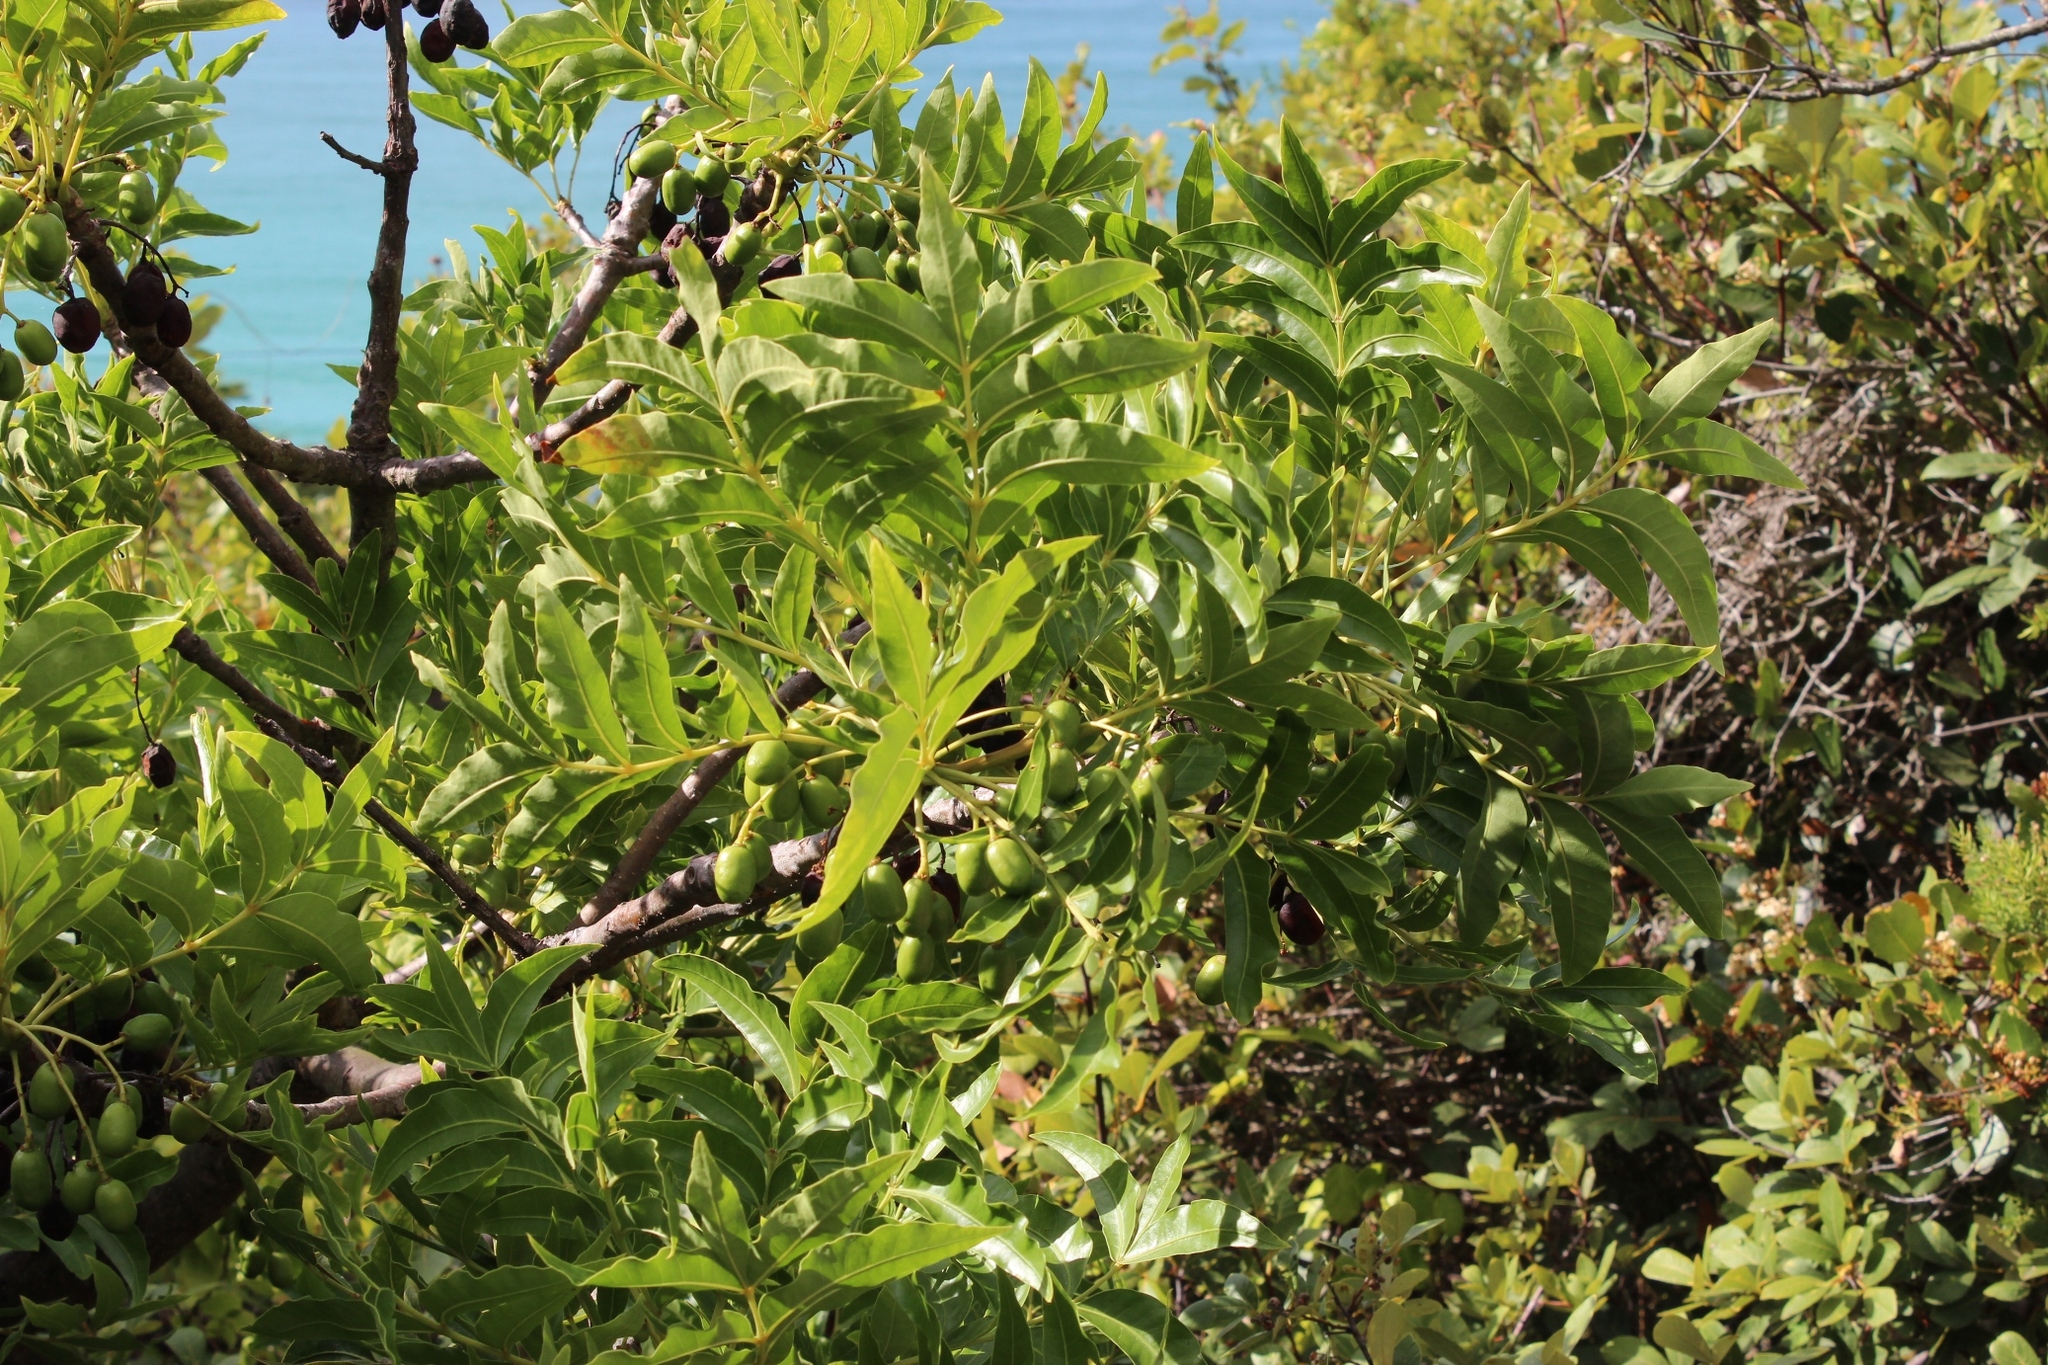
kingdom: Plantae
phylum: Tracheophyta
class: Magnoliopsida
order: Sapindales
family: Anacardiaceae
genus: Harpephyllum
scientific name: Harpephyllum caffrum
